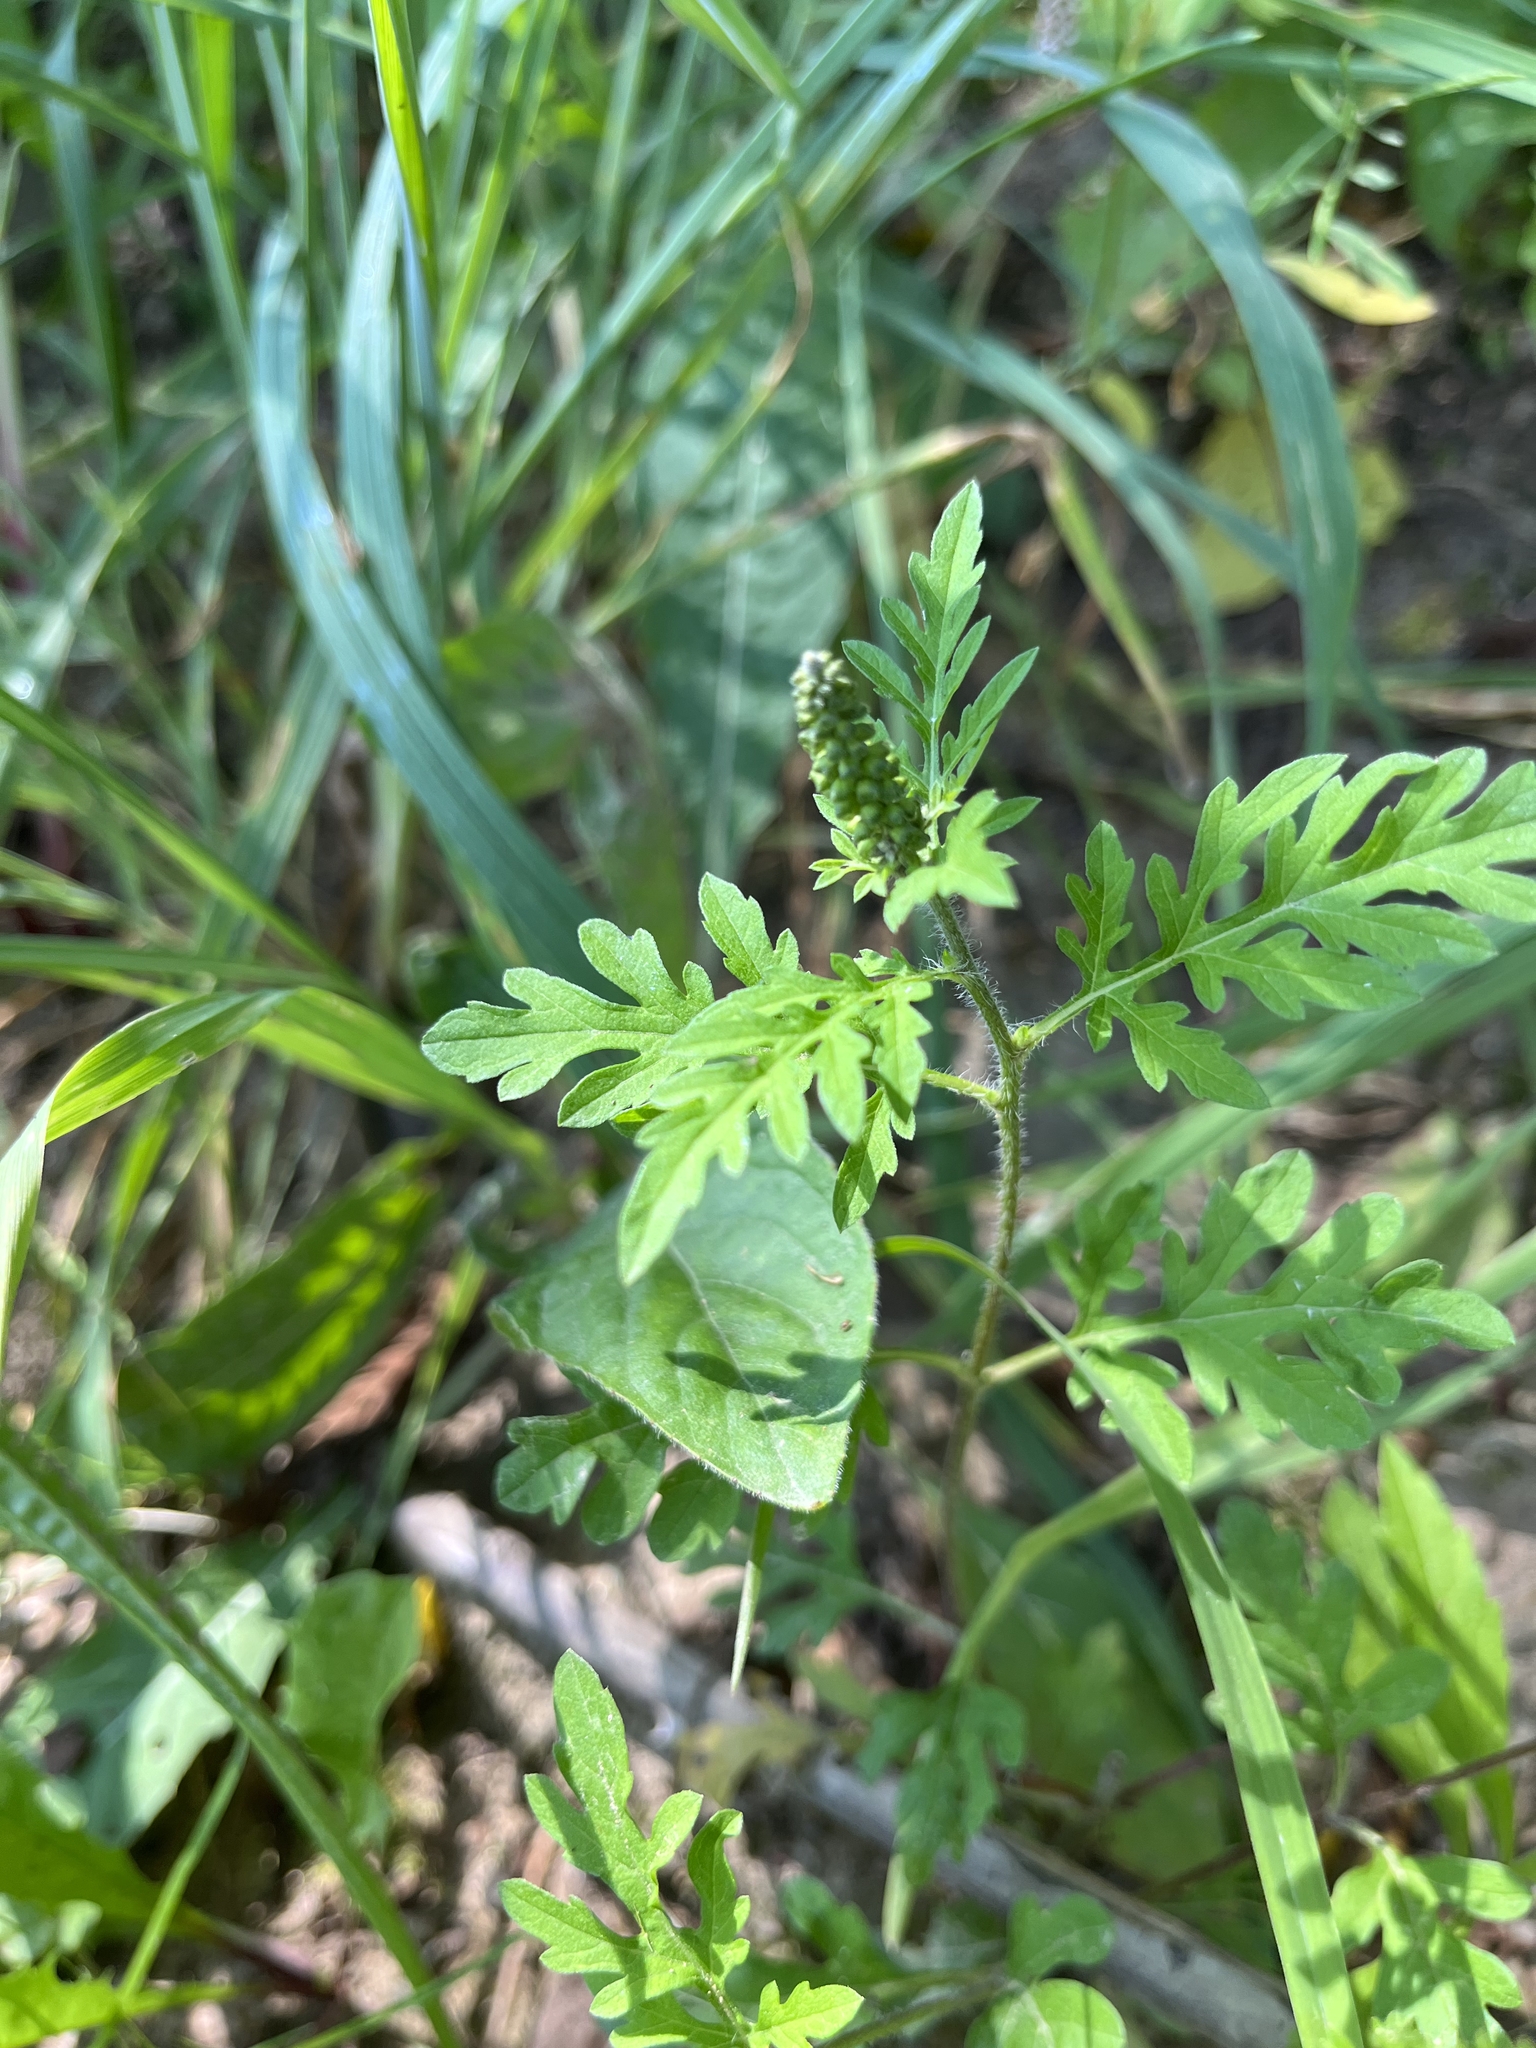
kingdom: Plantae
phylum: Tracheophyta
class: Magnoliopsida
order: Asterales
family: Asteraceae
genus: Ambrosia
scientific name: Ambrosia artemisiifolia
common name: Annual ragweed
